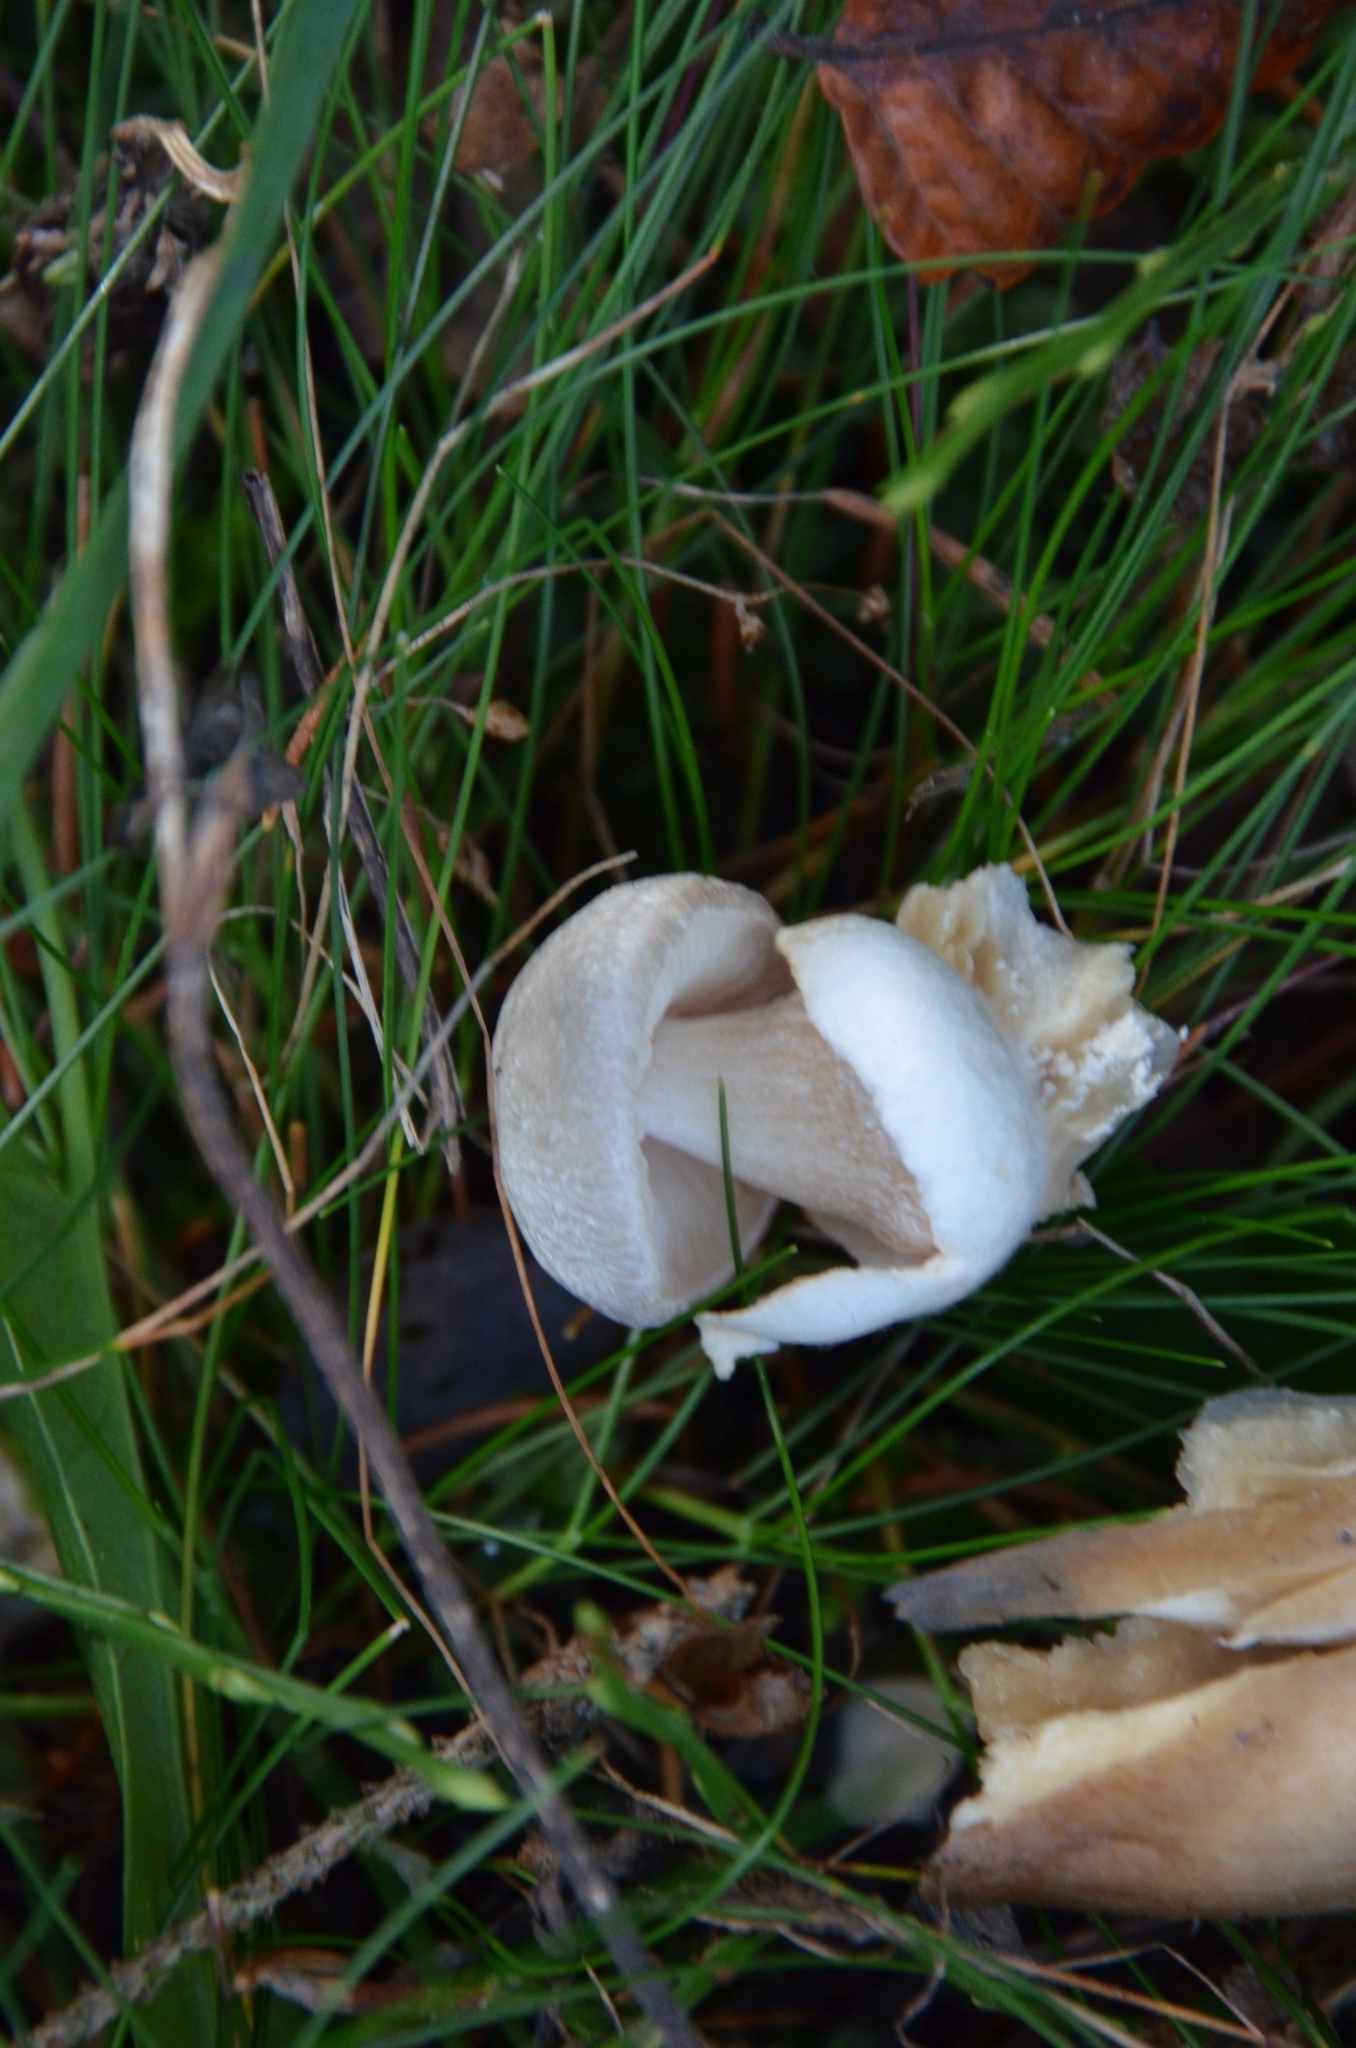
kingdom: Fungi
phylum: Basidiomycota
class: Agaricomycetes
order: Agaricales
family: Pluteaceae
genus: Volvariella
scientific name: Volvariella surrecta
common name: Piggyback rosegill
